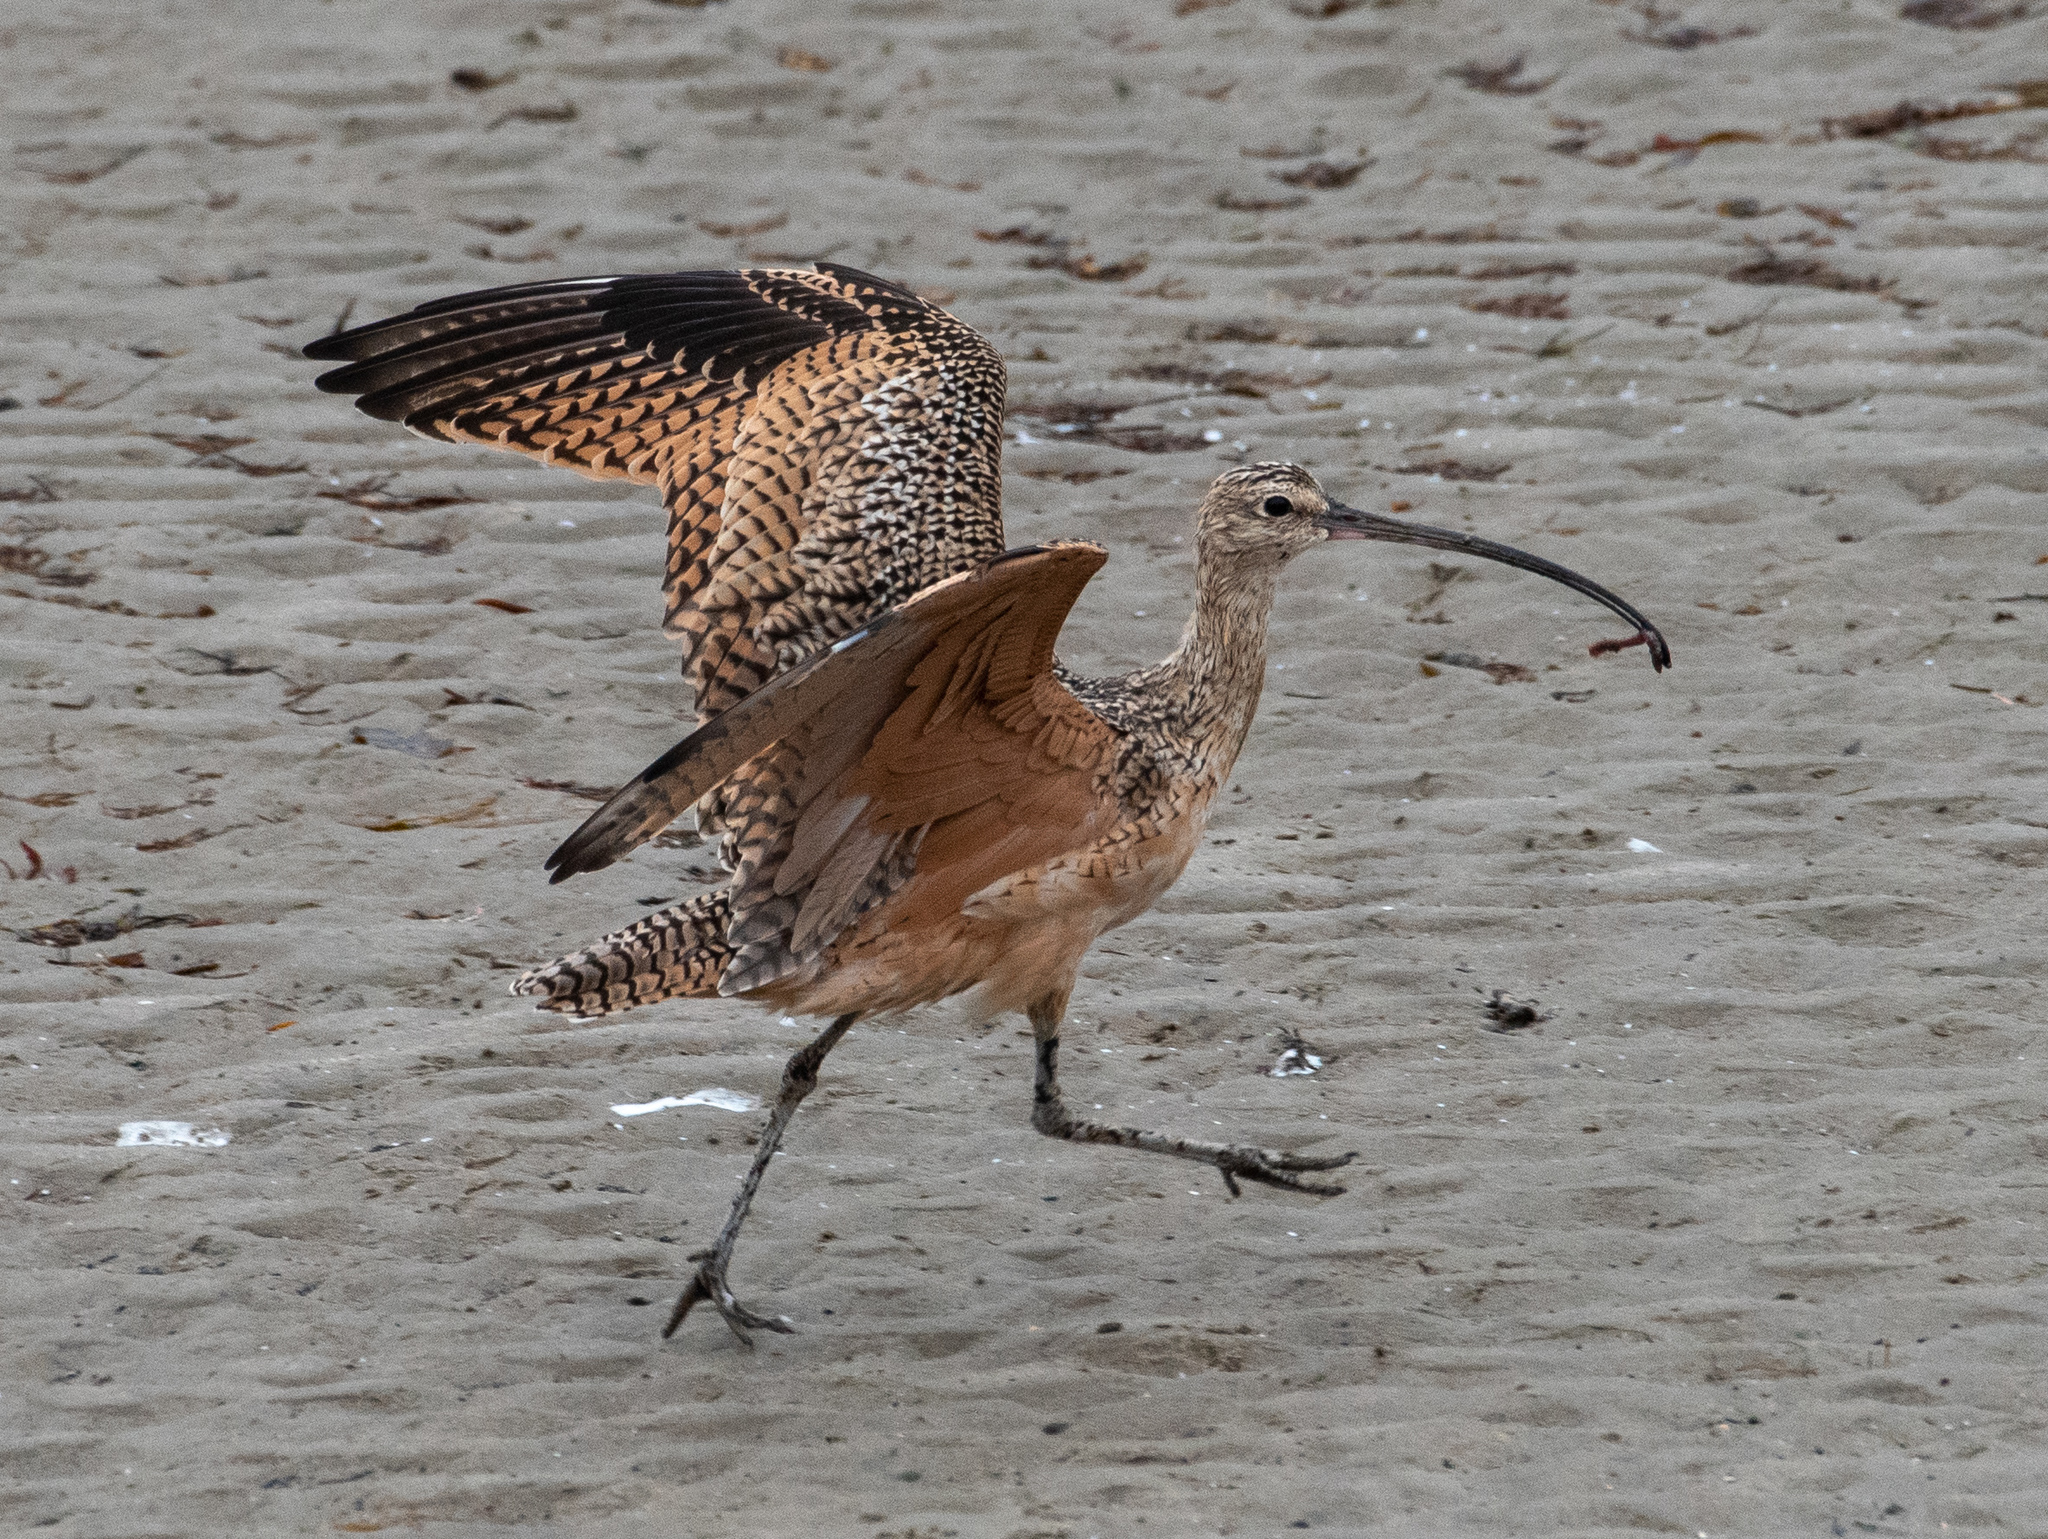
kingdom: Animalia
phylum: Chordata
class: Aves
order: Charadriiformes
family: Scolopacidae
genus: Numenius
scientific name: Numenius americanus
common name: Long-billed curlew
